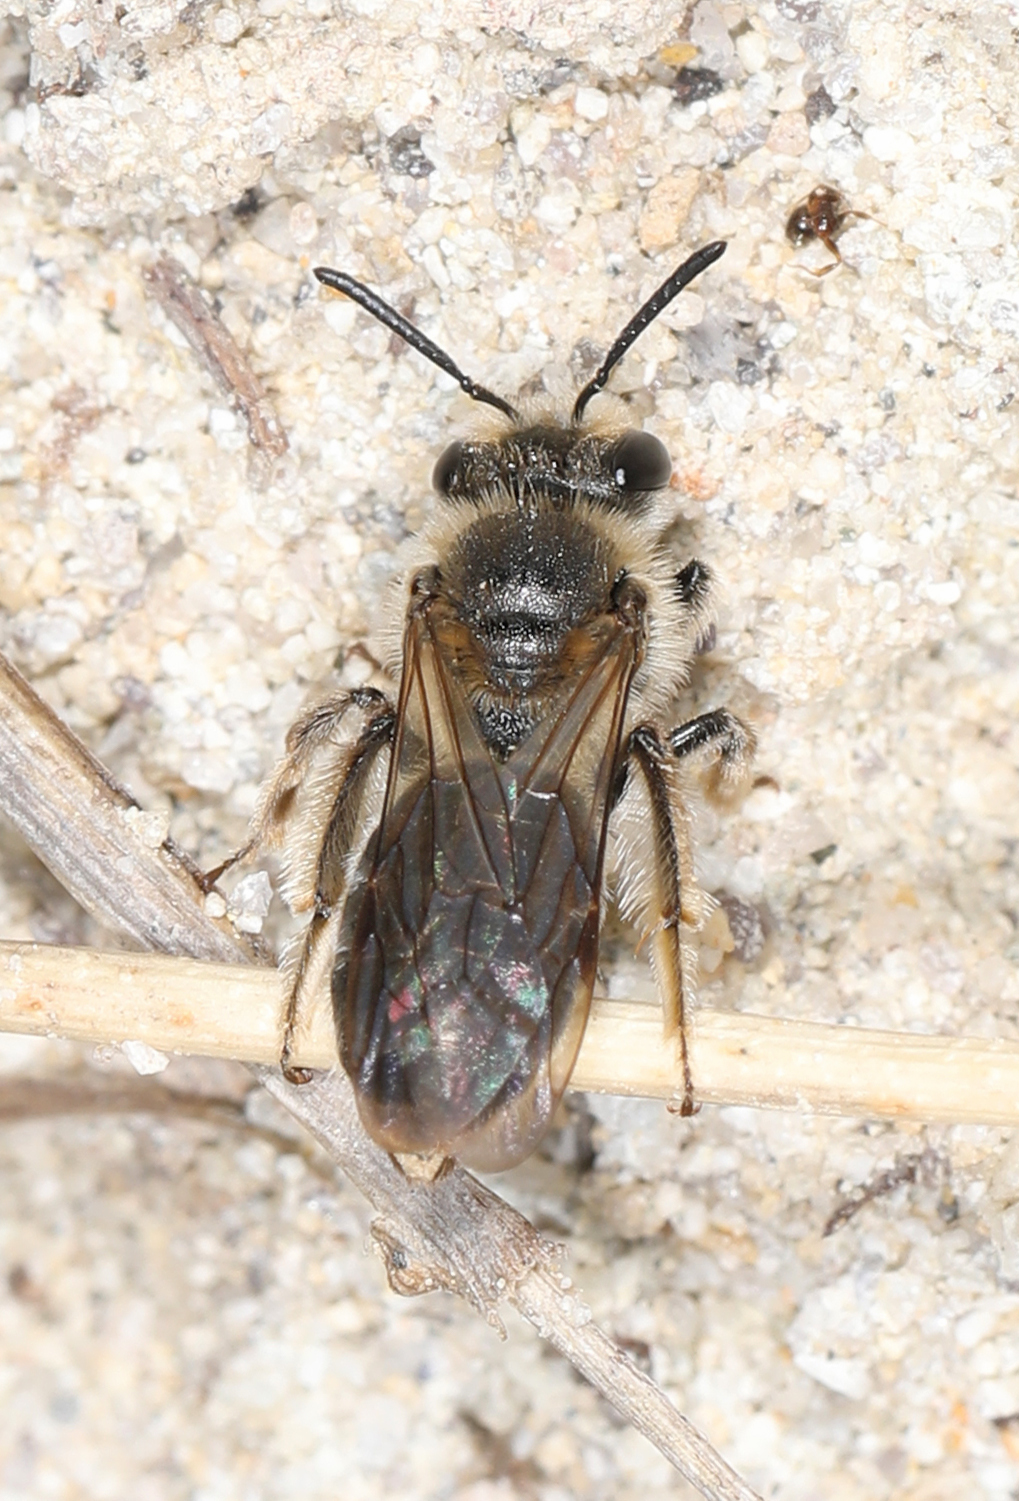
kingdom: Animalia
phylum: Arthropoda
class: Insecta
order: Hymenoptera
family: Andrenidae
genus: Andrena
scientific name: Andrena fenningeri
